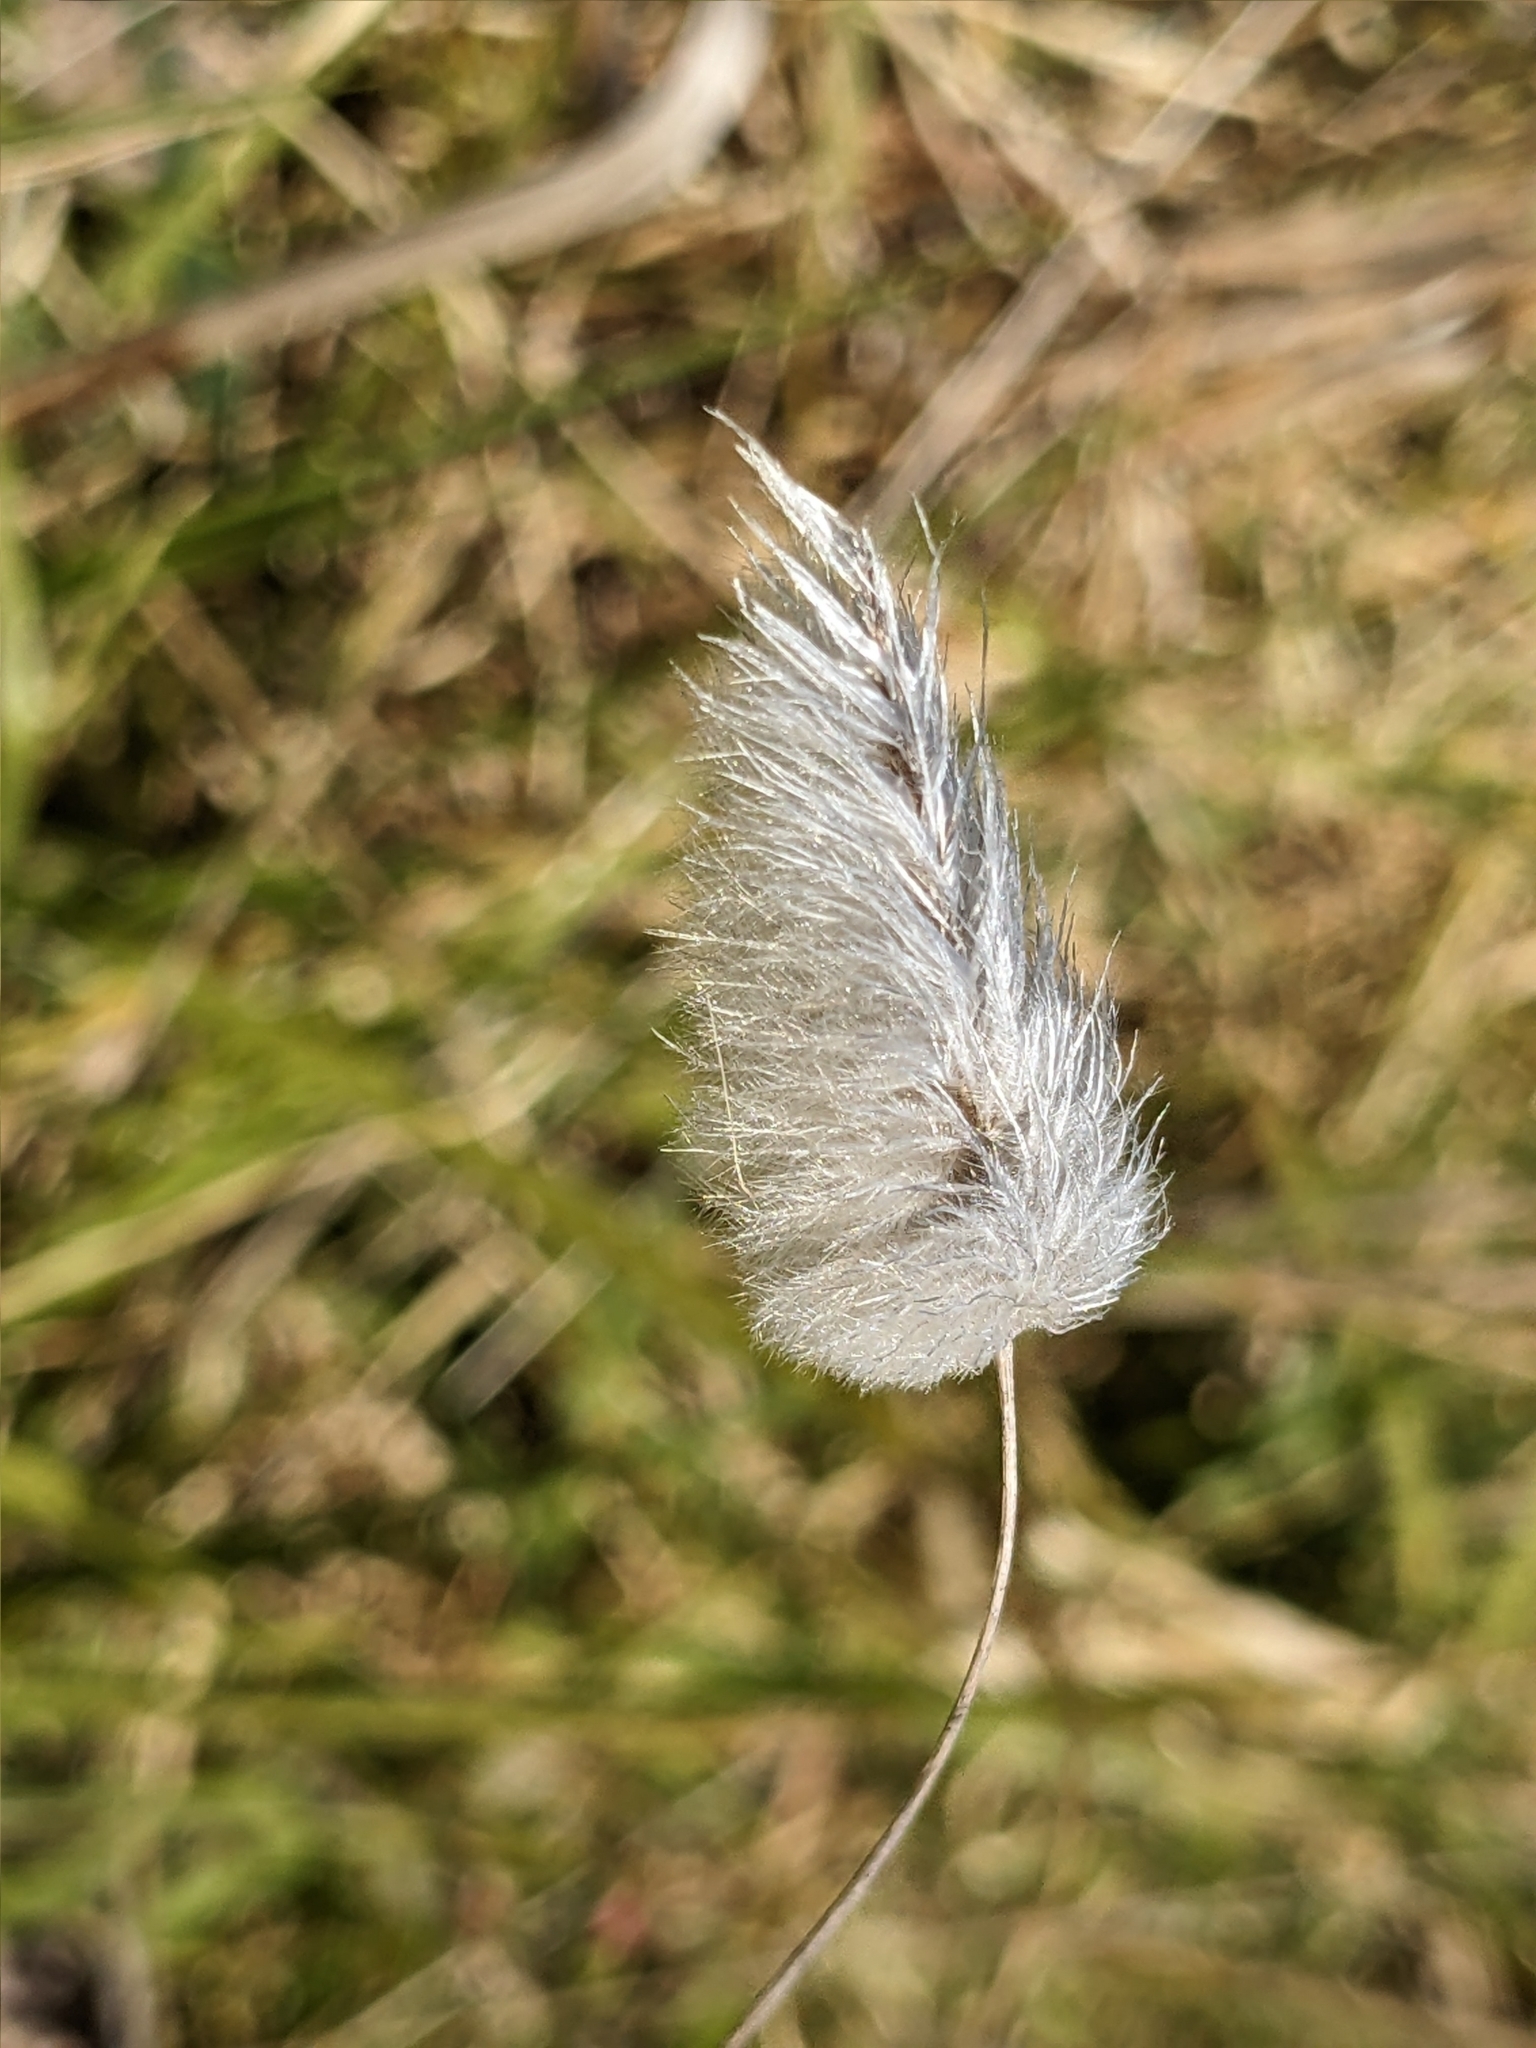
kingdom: Plantae
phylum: Tracheophyta
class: Liliopsida
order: Poales
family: Poaceae
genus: Lagurus
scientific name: Lagurus ovatus
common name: Hare's-tail
